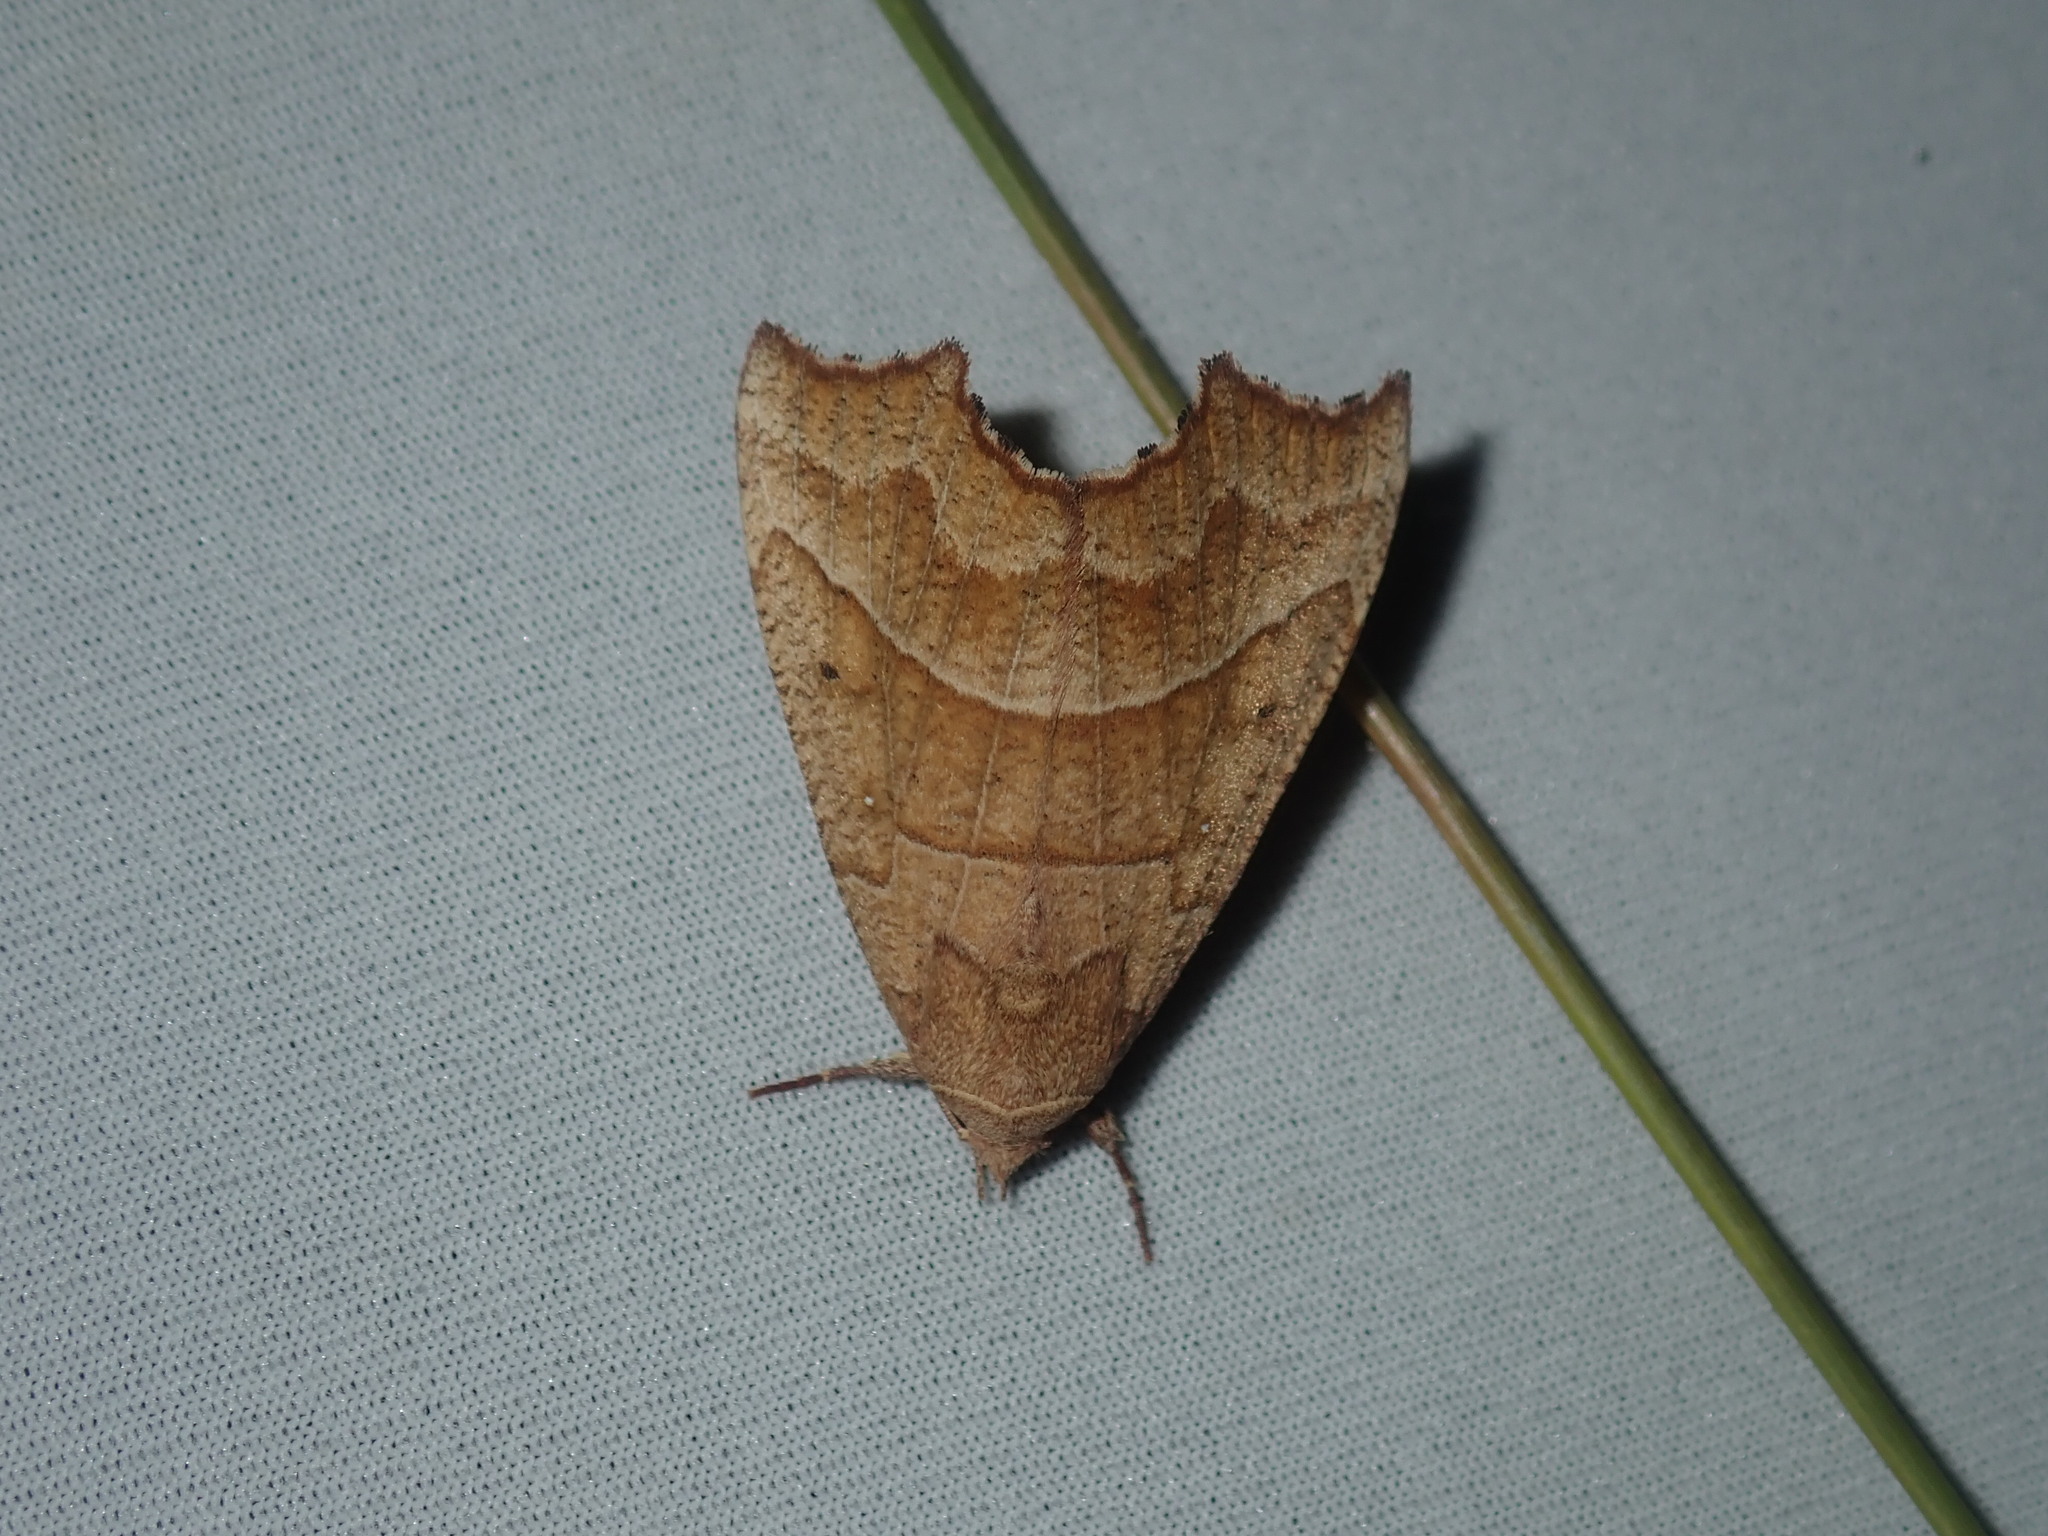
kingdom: Animalia
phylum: Arthropoda
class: Insecta
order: Lepidoptera
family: Erebidae
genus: Anomis
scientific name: Anomis psamathodes
